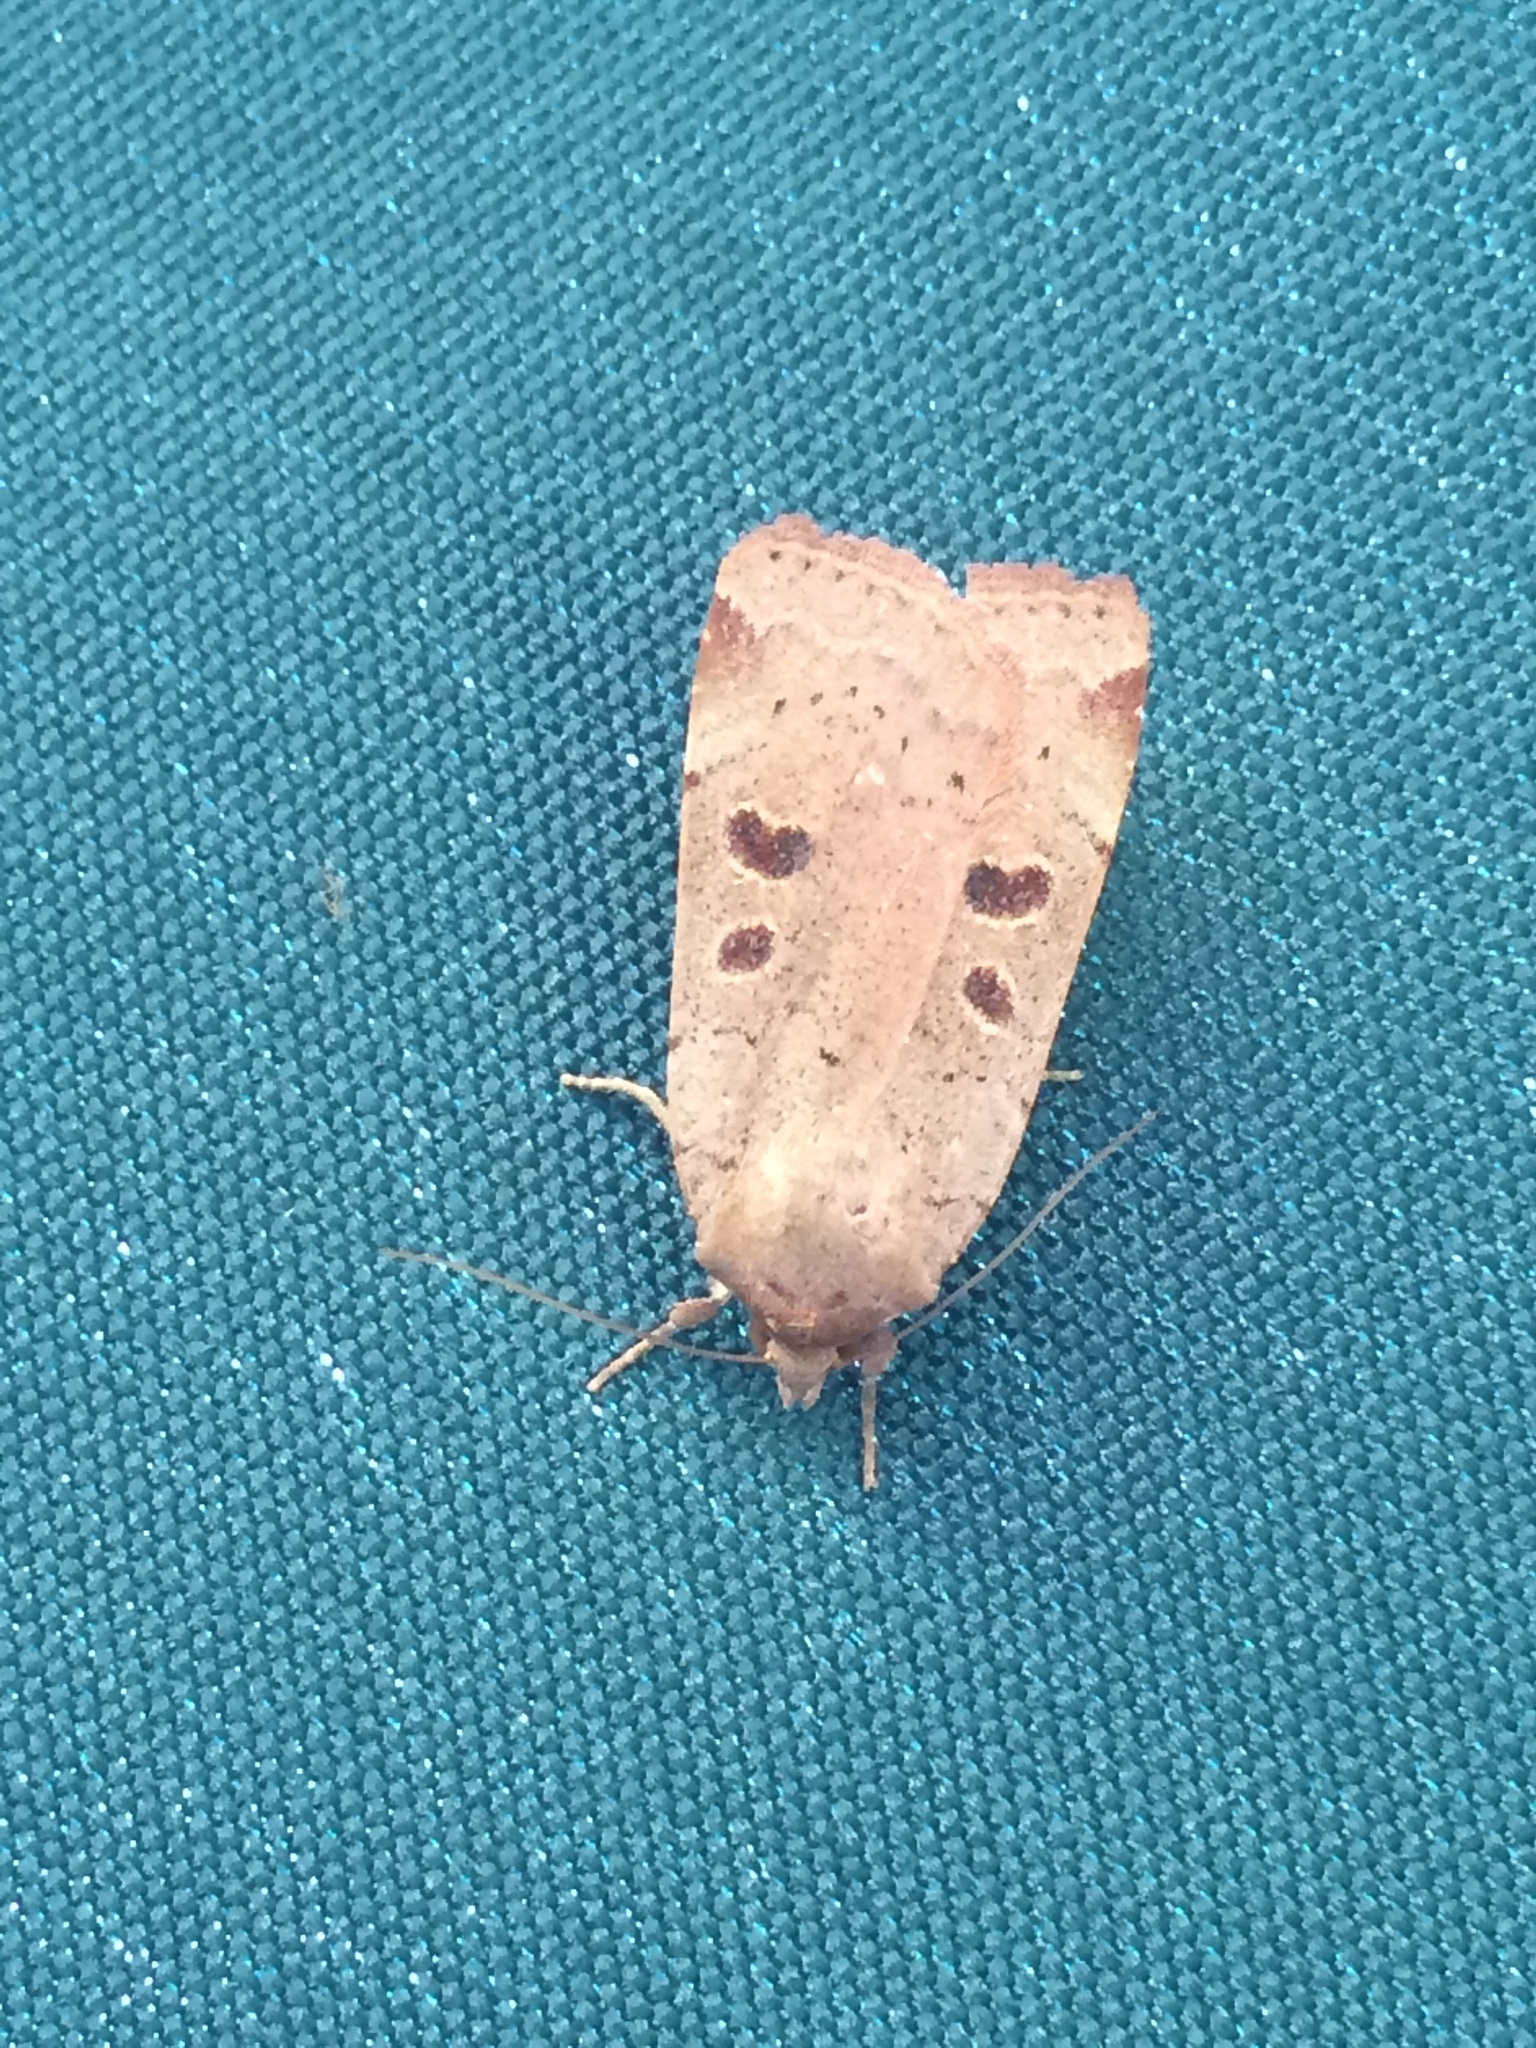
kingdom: Animalia
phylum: Arthropoda
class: Insecta
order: Lepidoptera
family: Noctuidae
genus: Noctua
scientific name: Noctua comes
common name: Lesser yellow underwing
